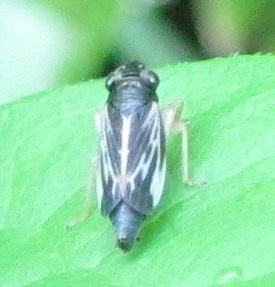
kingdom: Animalia
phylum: Arthropoda
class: Insecta
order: Hemiptera
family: Cicadellidae
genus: Evacanthus
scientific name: Evacanthus nigramericanus
